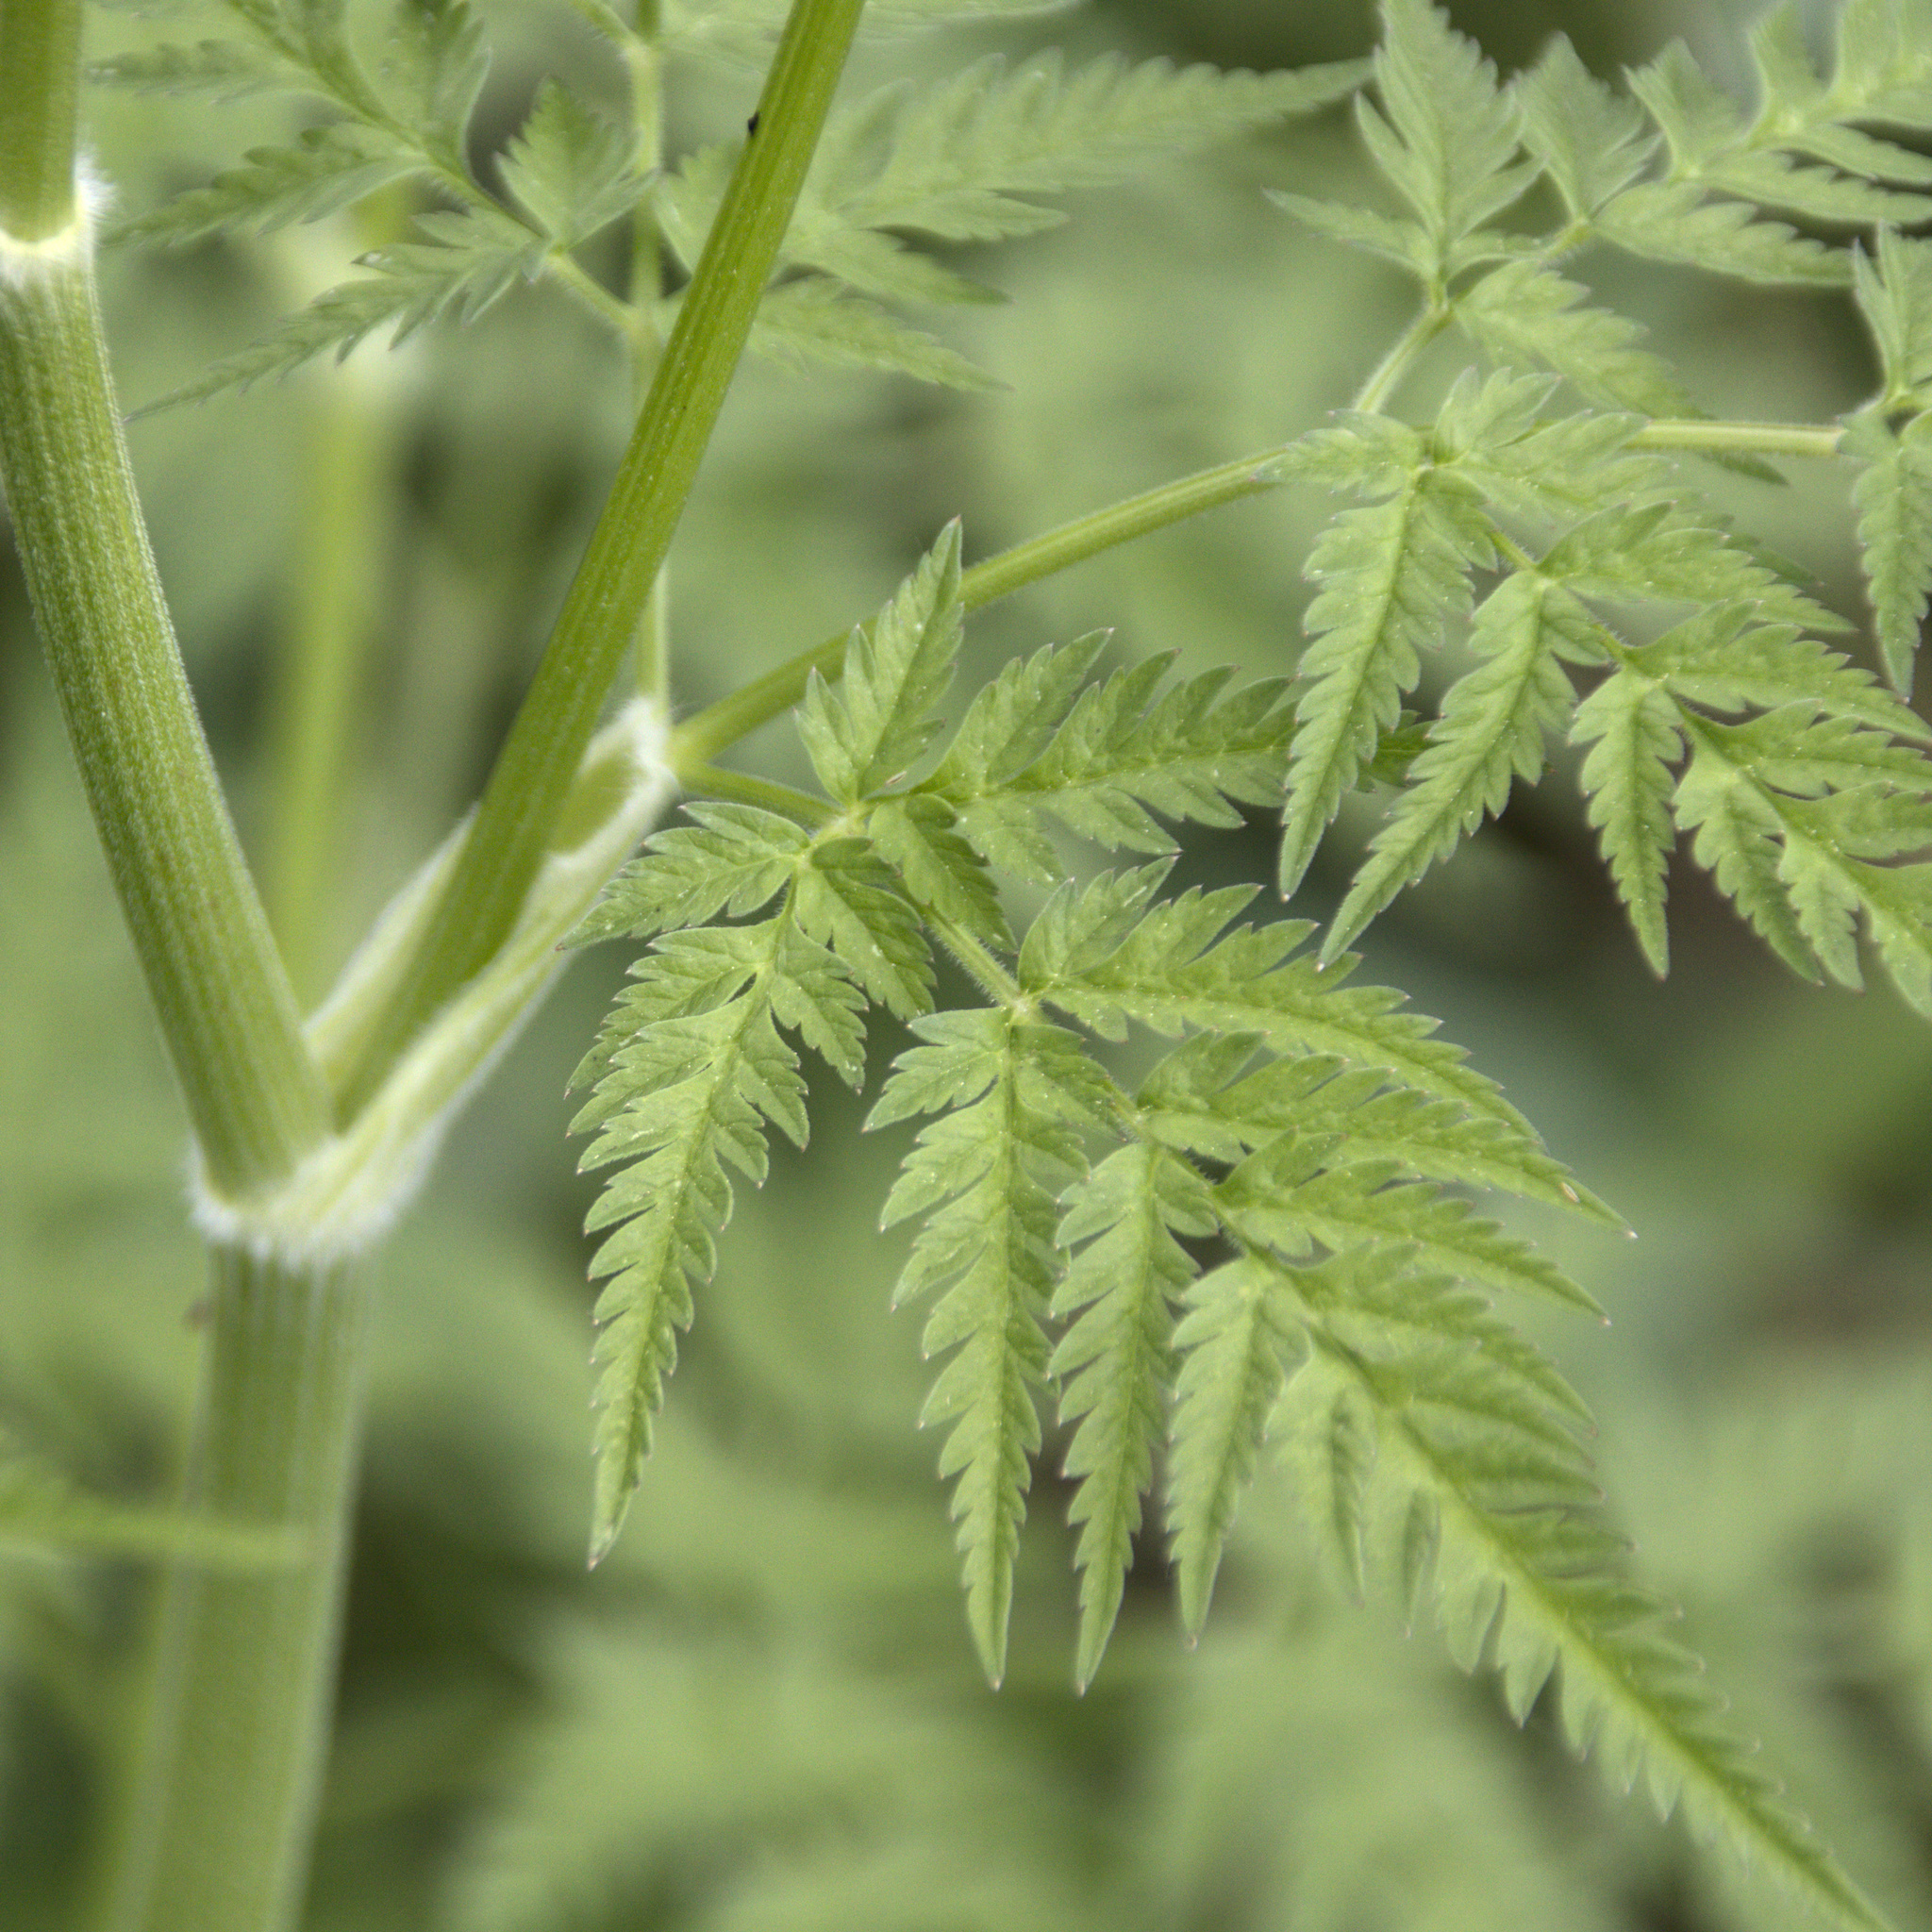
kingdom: Plantae
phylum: Tracheophyta
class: Magnoliopsida
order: Apiales
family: Apiaceae
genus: Anthriscus
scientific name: Anthriscus sylvestris
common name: Cow parsley
